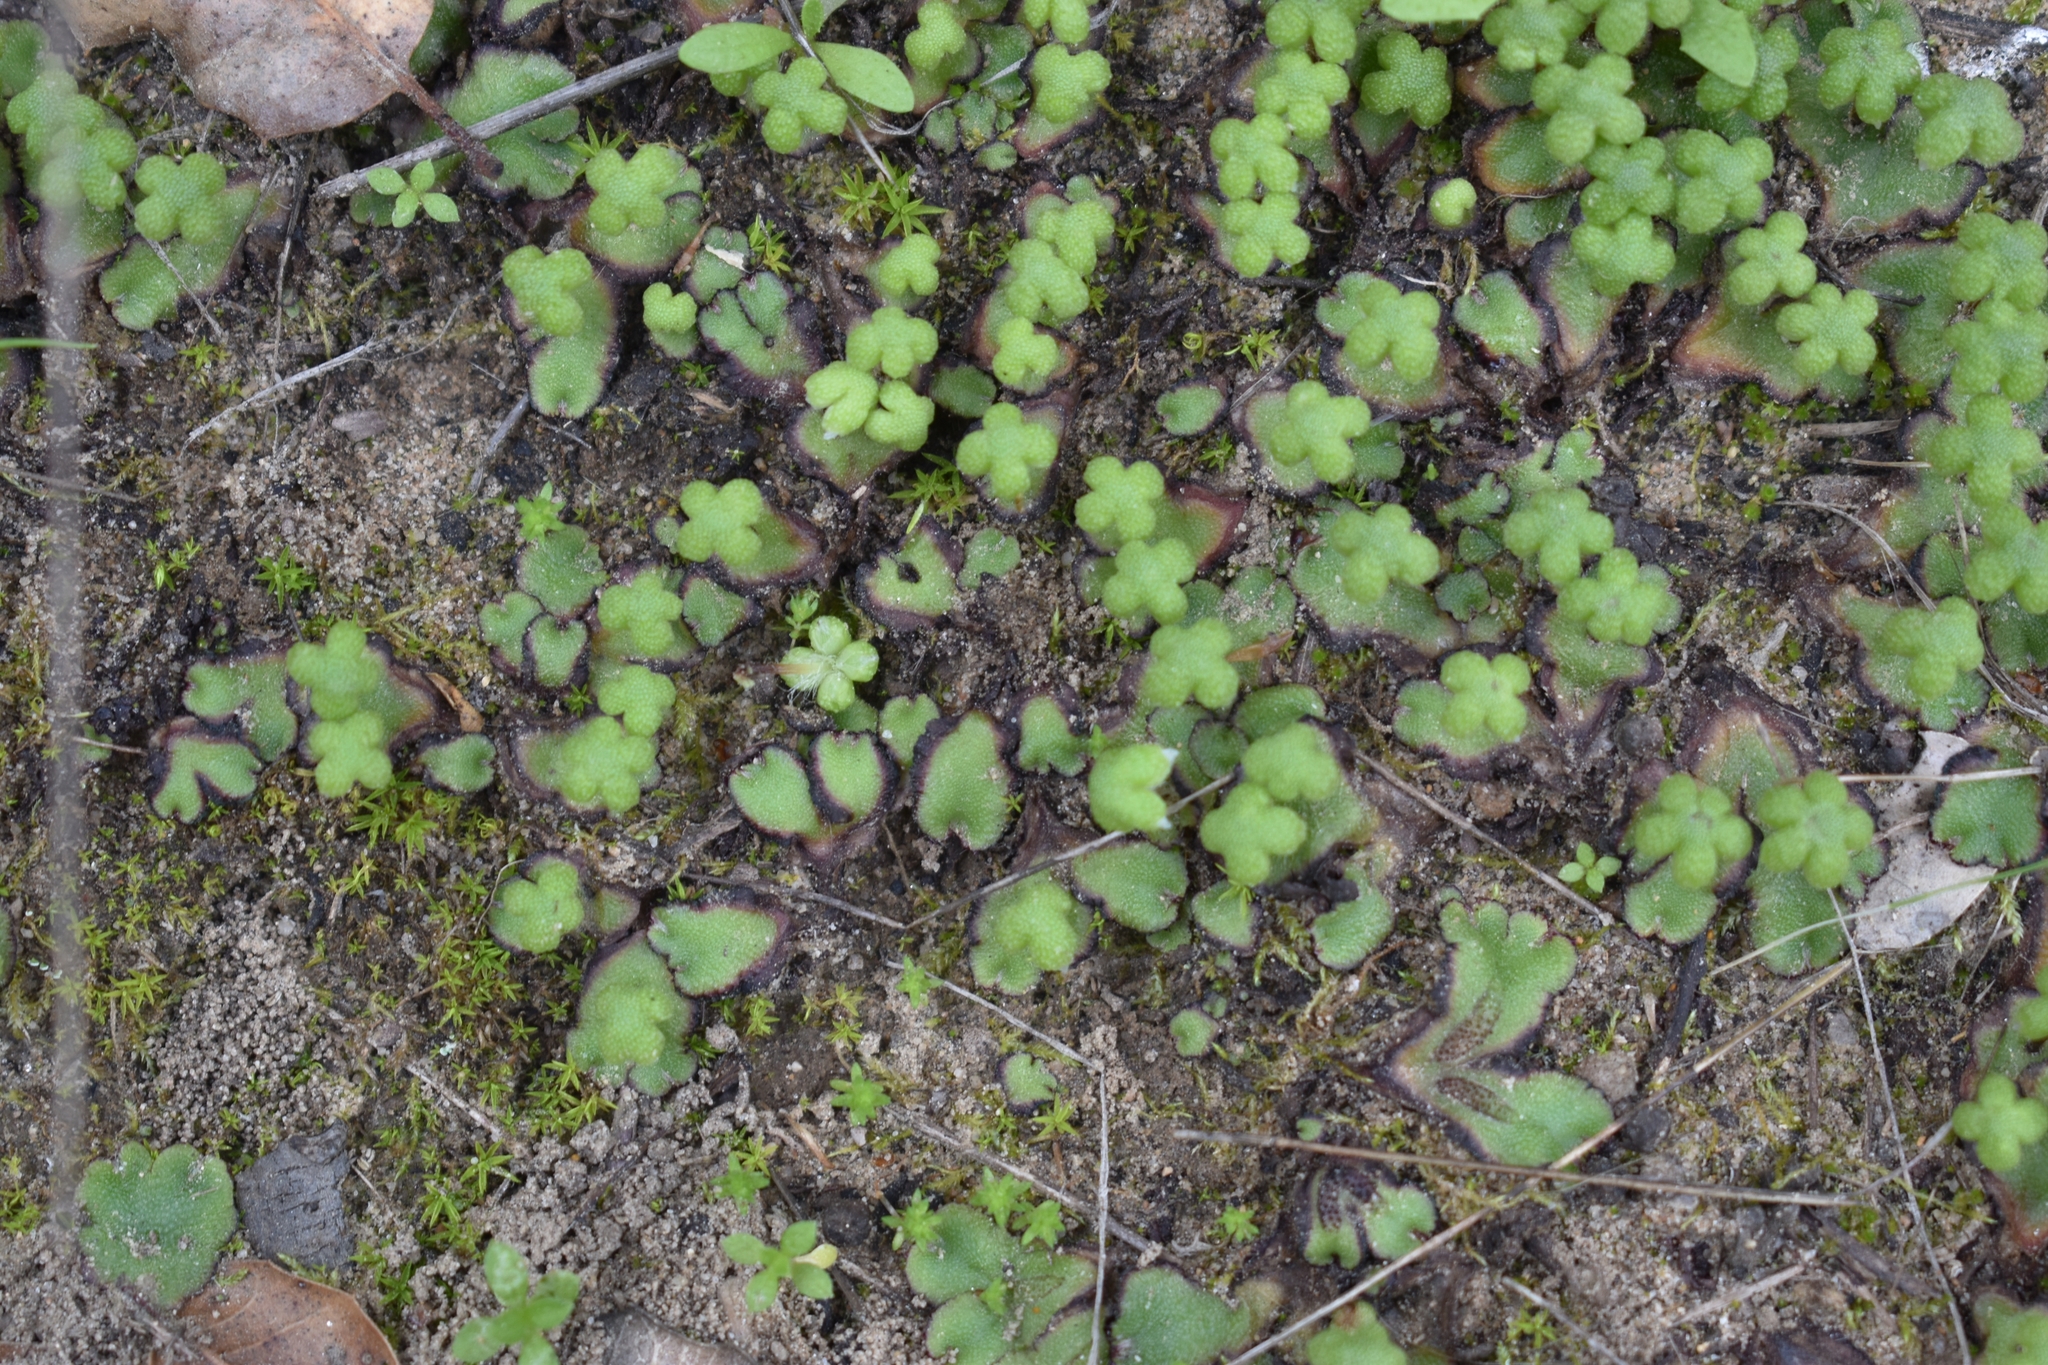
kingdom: Plantae
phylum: Marchantiophyta
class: Marchantiopsida
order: Marchantiales
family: Aytoniaceae
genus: Asterella
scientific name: Asterella californica
